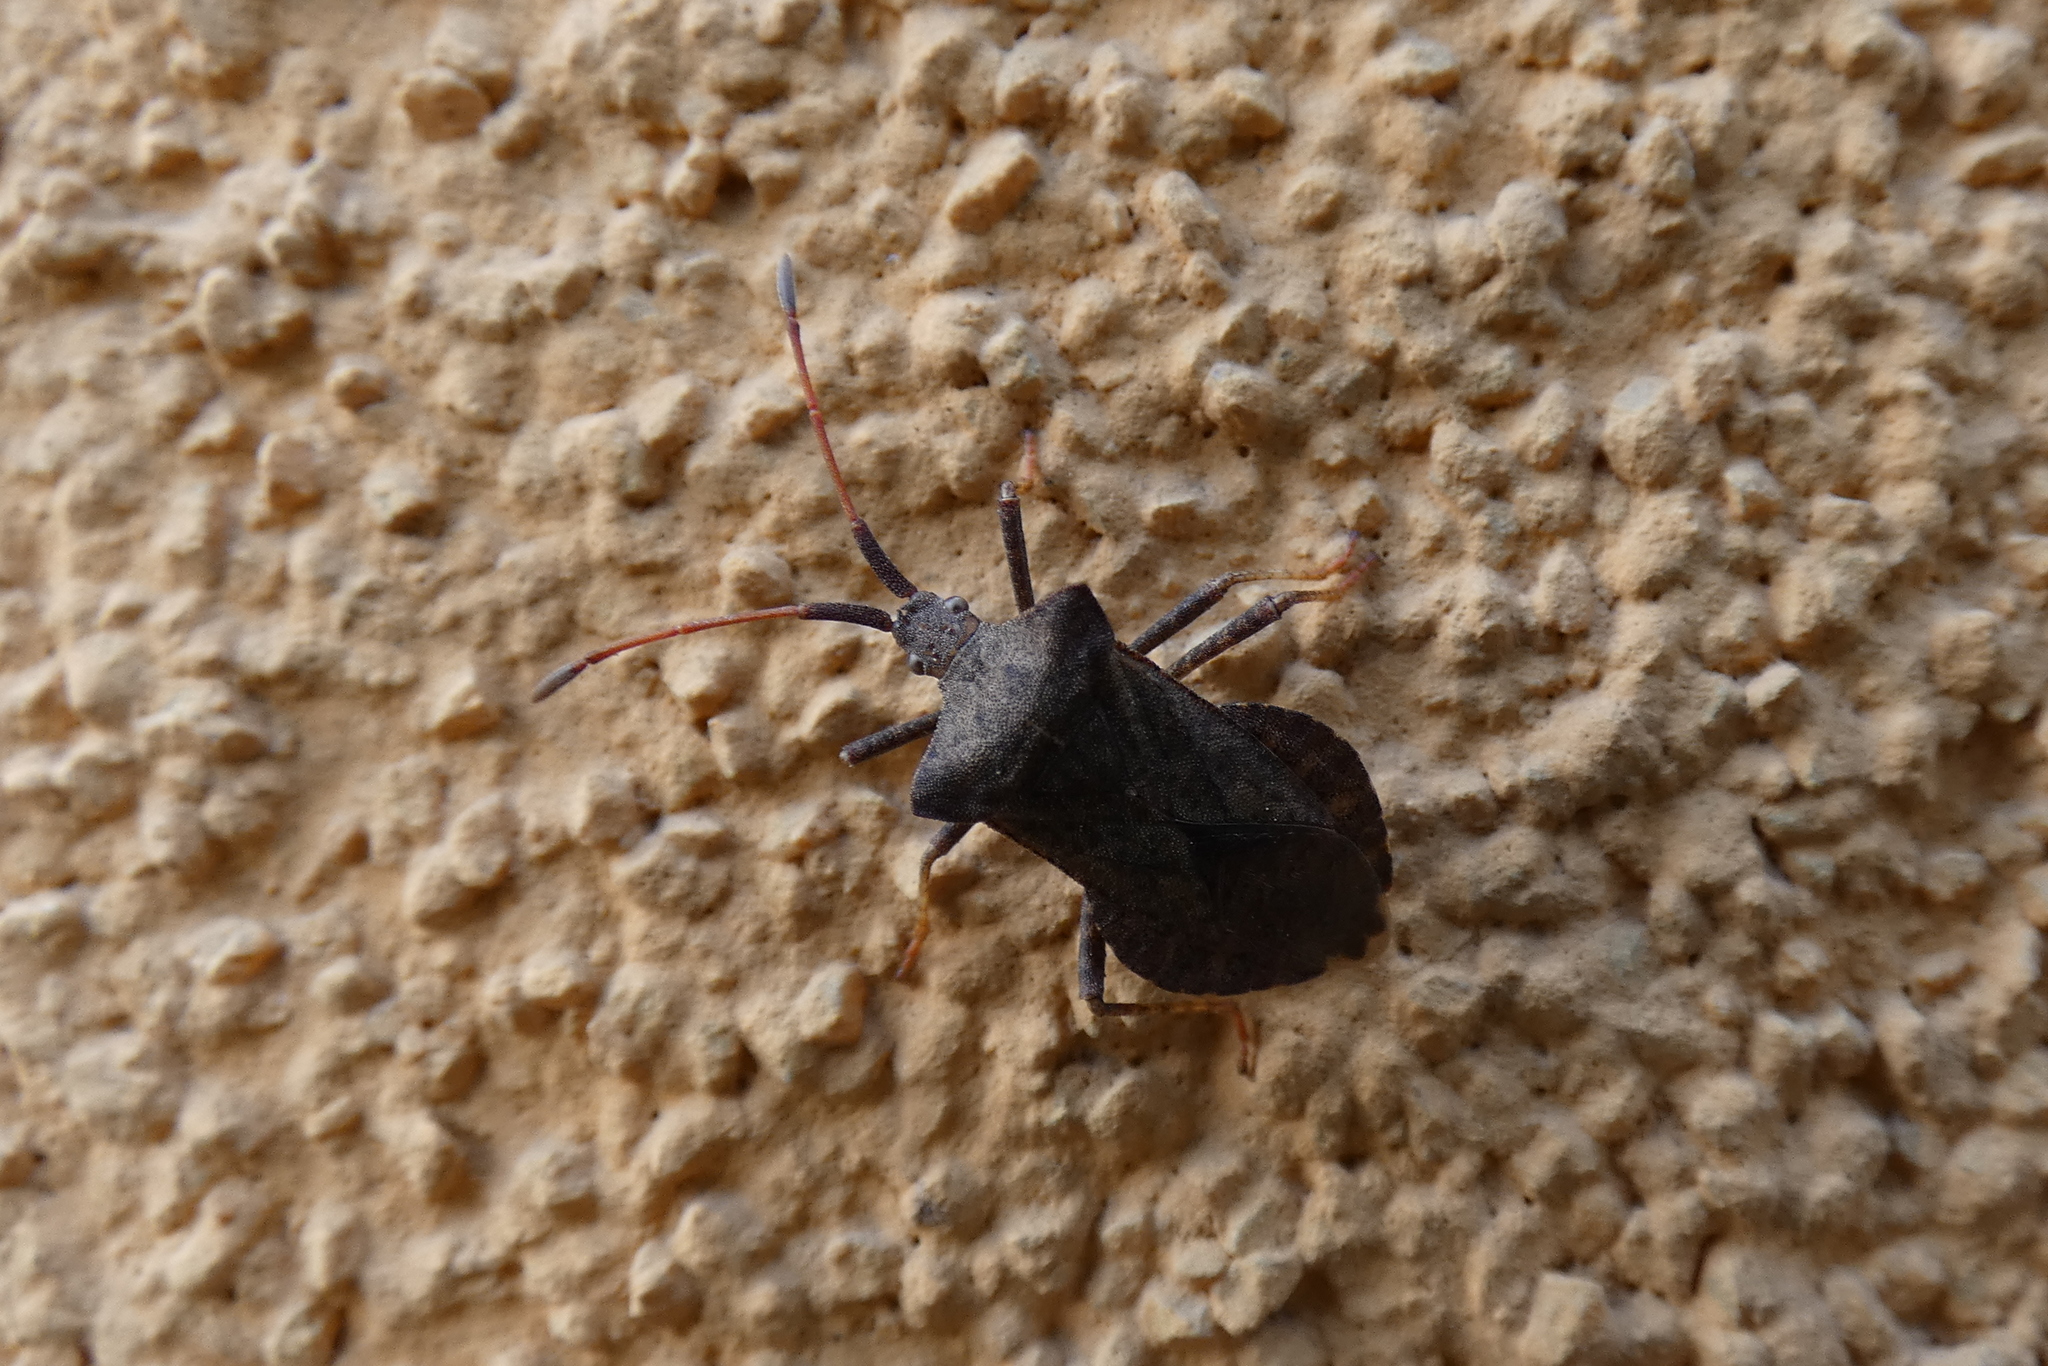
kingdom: Animalia
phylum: Arthropoda
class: Insecta
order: Hemiptera
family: Coreidae
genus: Coreus
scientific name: Coreus marginatus
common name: Dock bug
